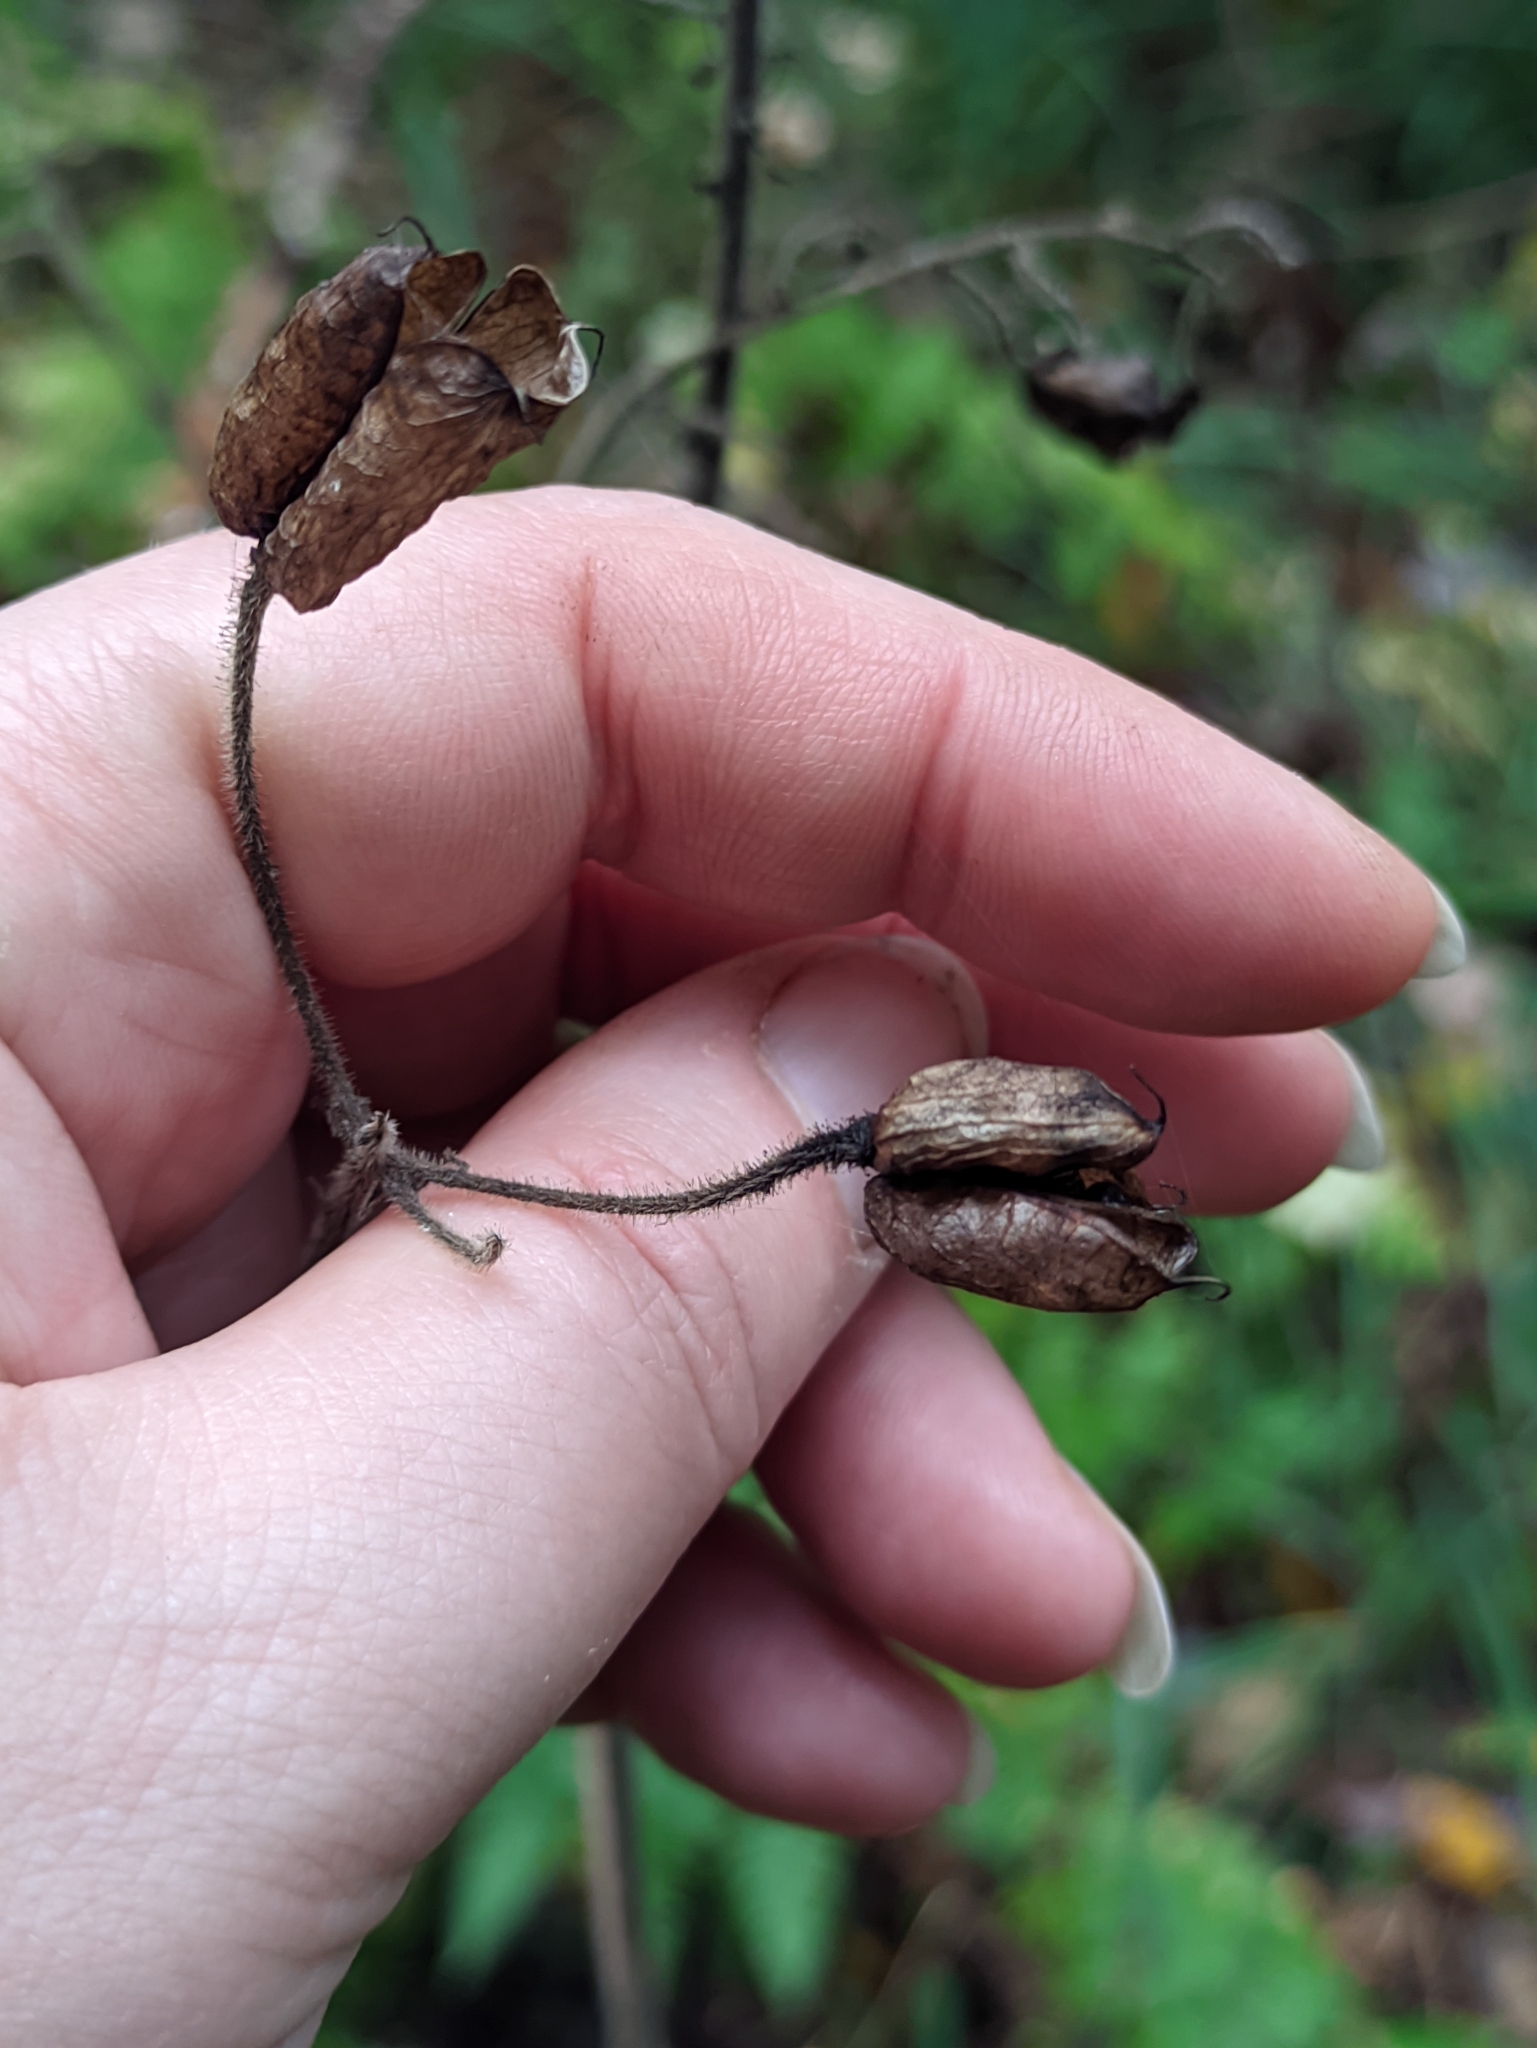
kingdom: Plantae
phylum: Tracheophyta
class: Magnoliopsida
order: Ranunculales
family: Ranunculaceae
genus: Aconitum
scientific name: Aconitum septentrionale
